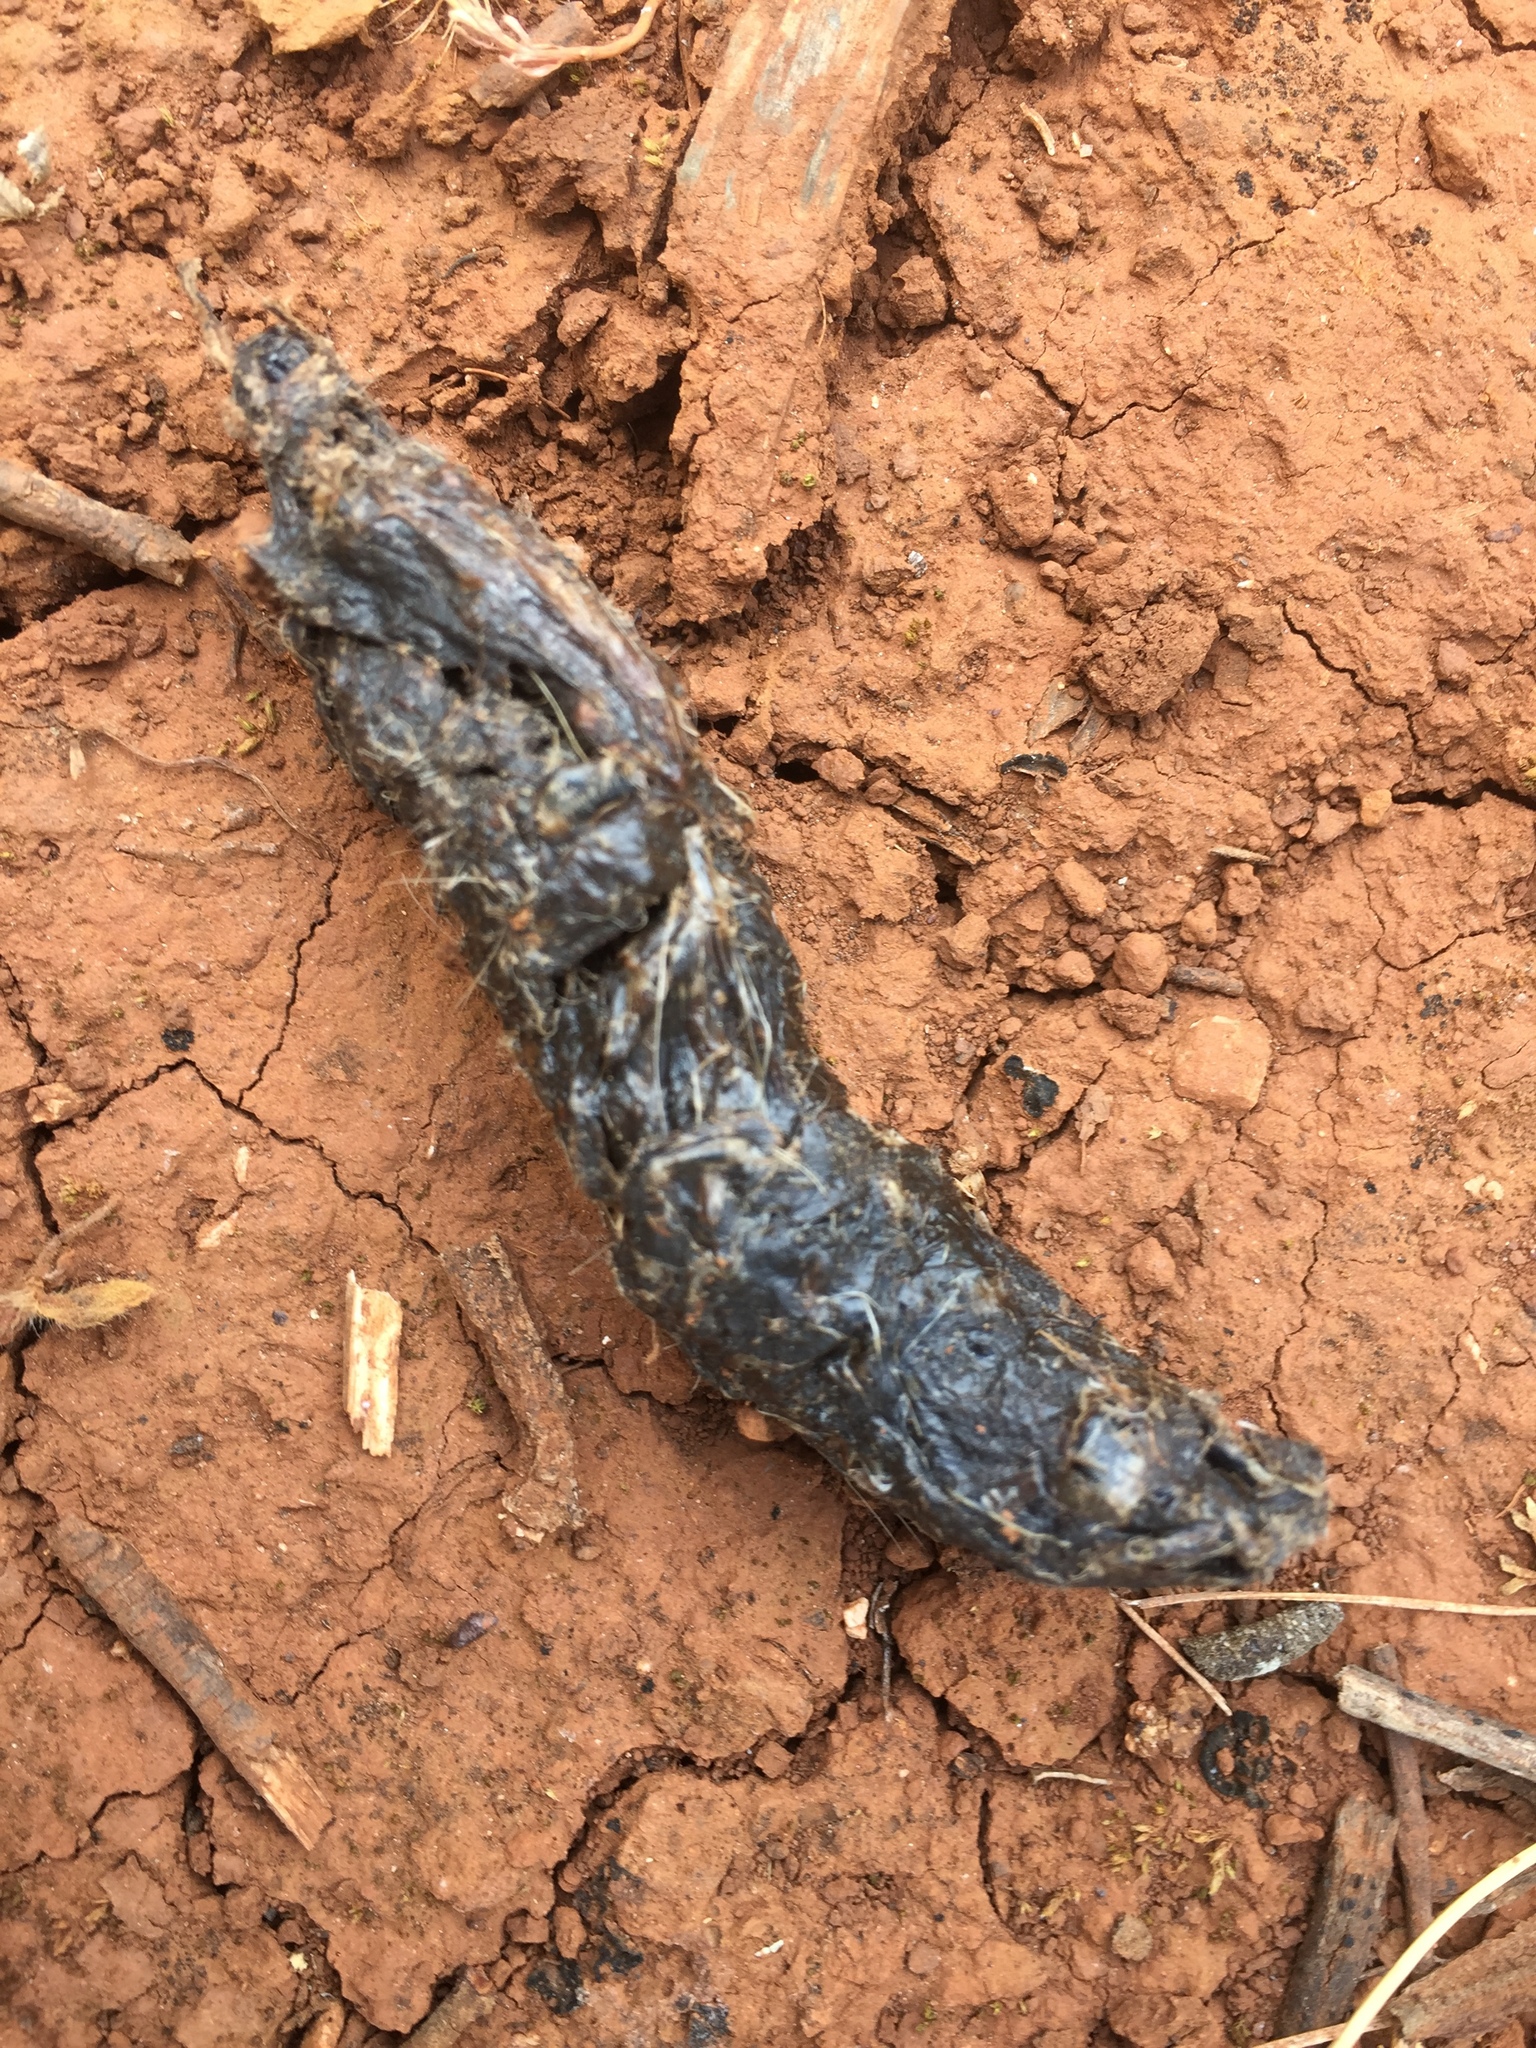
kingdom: Animalia
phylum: Chordata
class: Mammalia
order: Carnivora
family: Canidae
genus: Vulpes
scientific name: Vulpes vulpes
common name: Red fox
